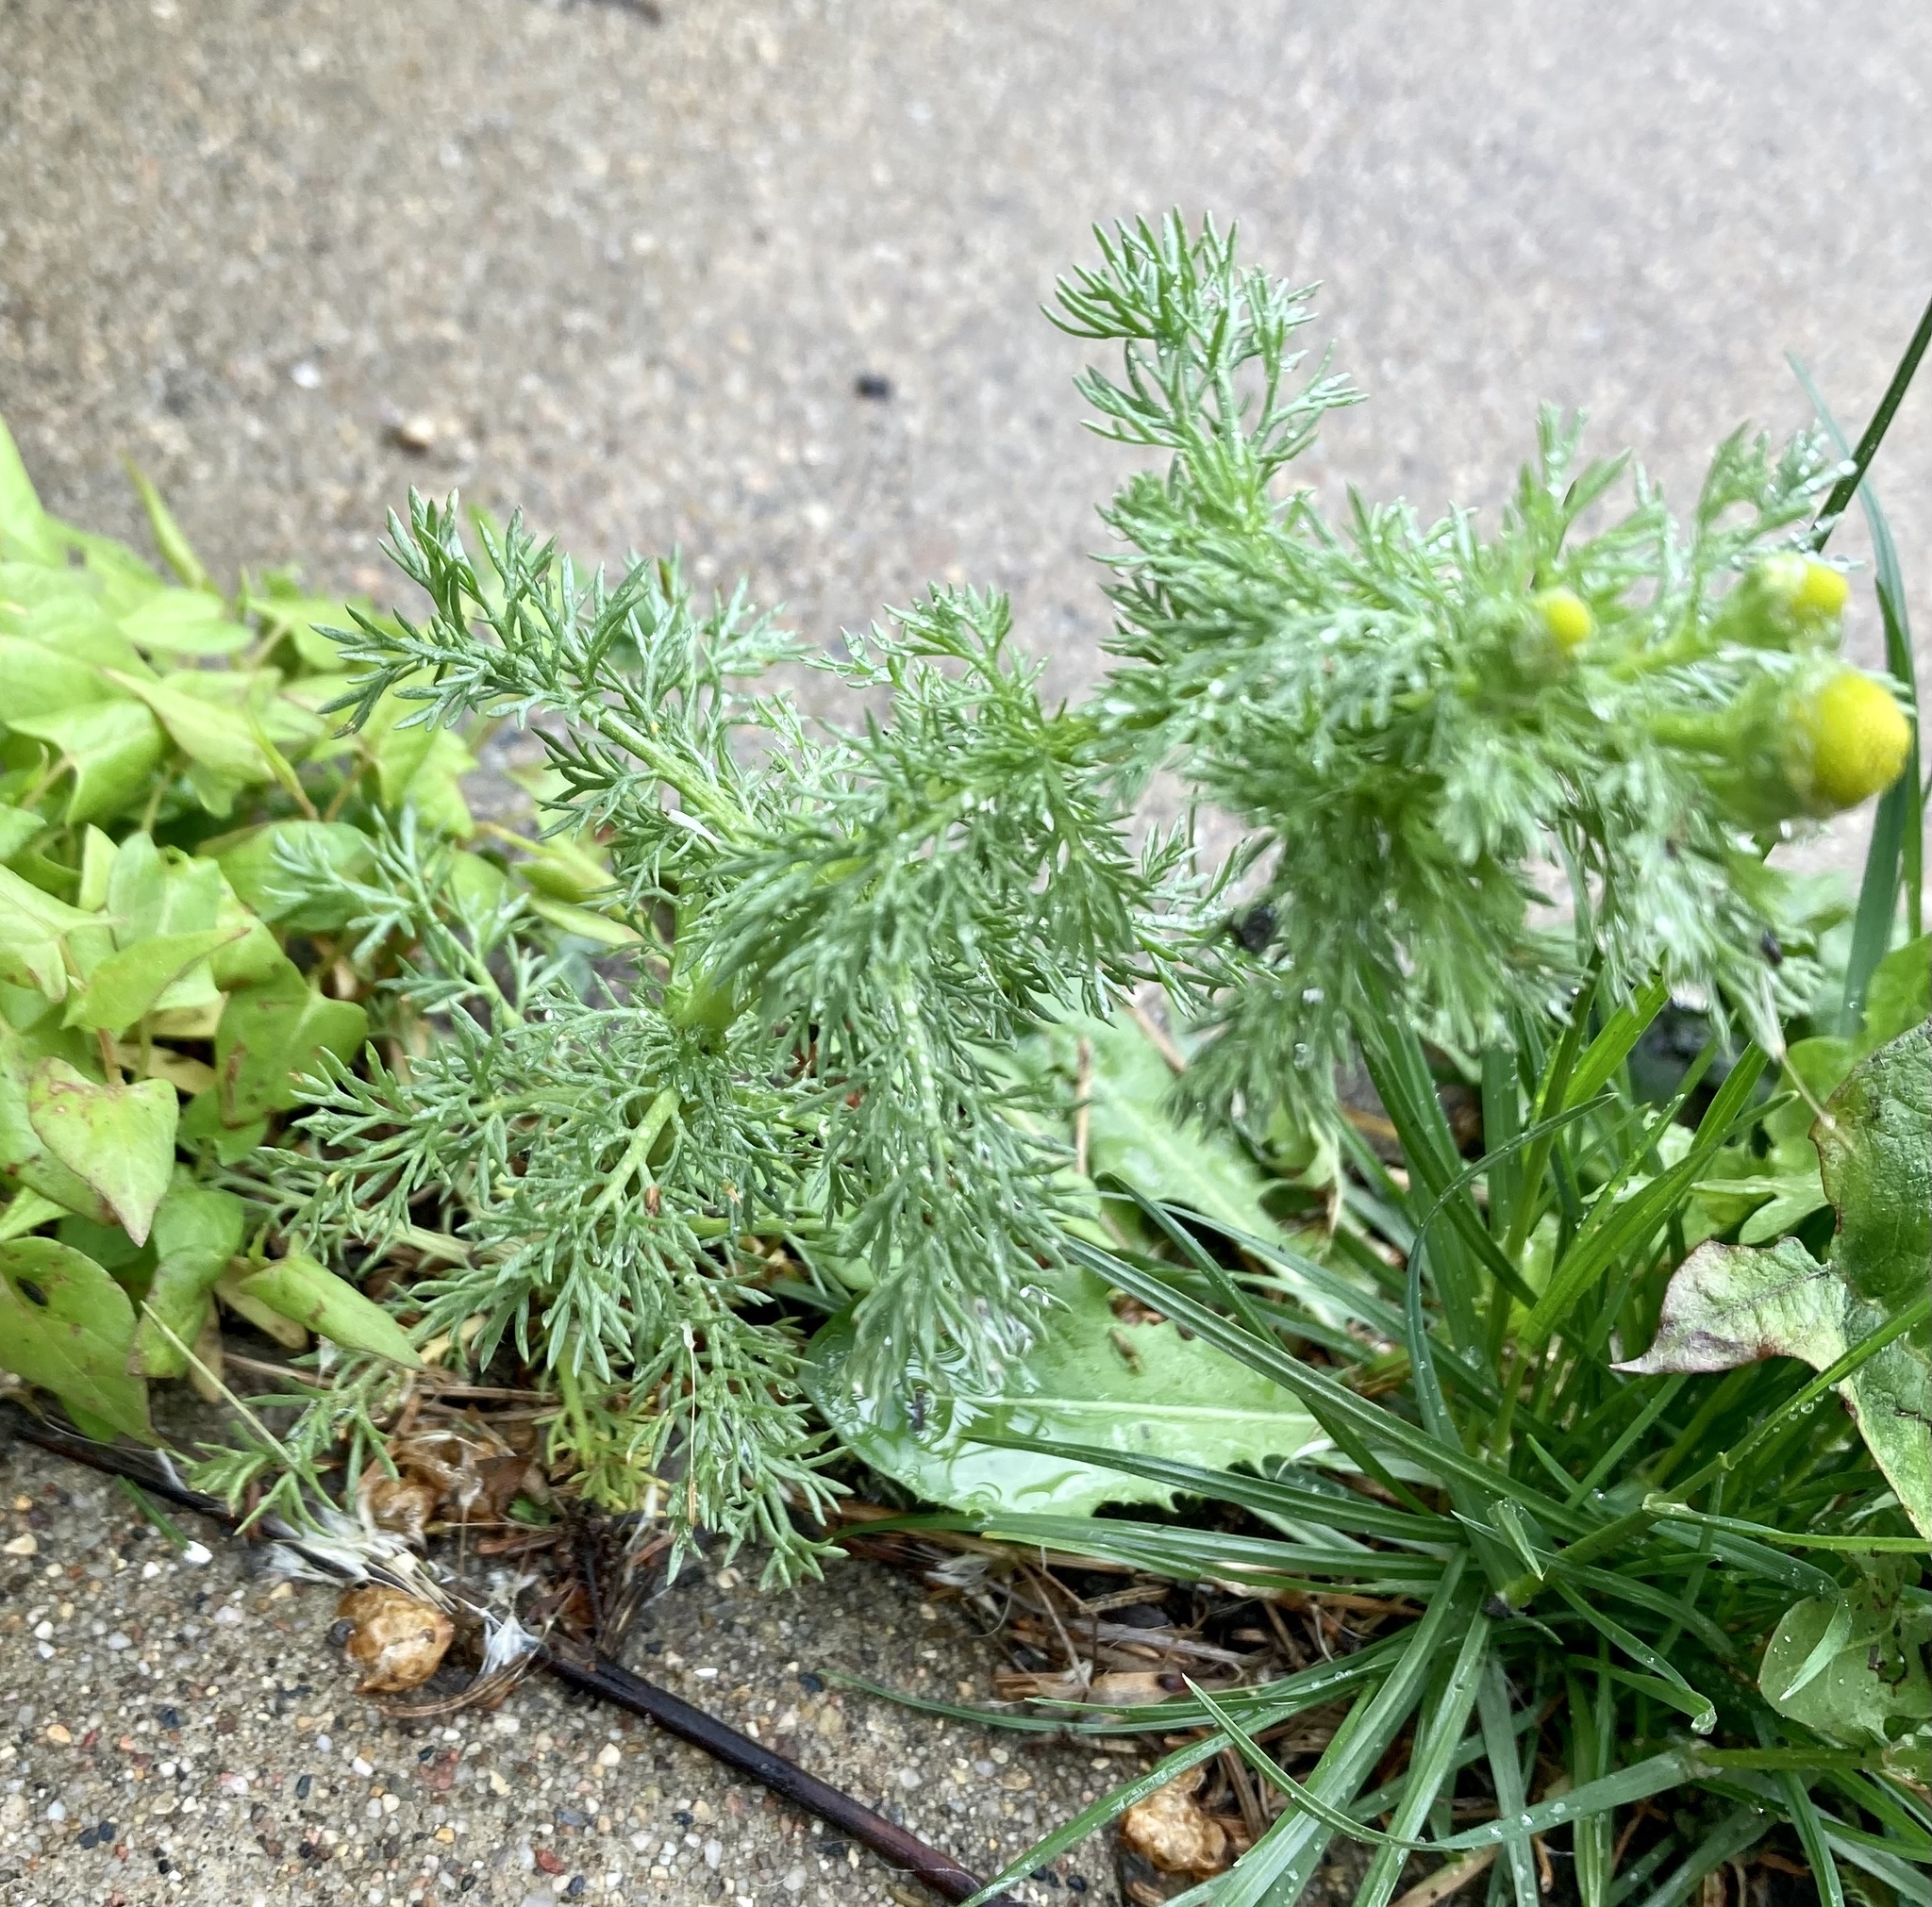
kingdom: Plantae
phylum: Tracheophyta
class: Magnoliopsida
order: Asterales
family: Asteraceae
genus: Matricaria
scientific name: Matricaria discoidea
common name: Disc mayweed
